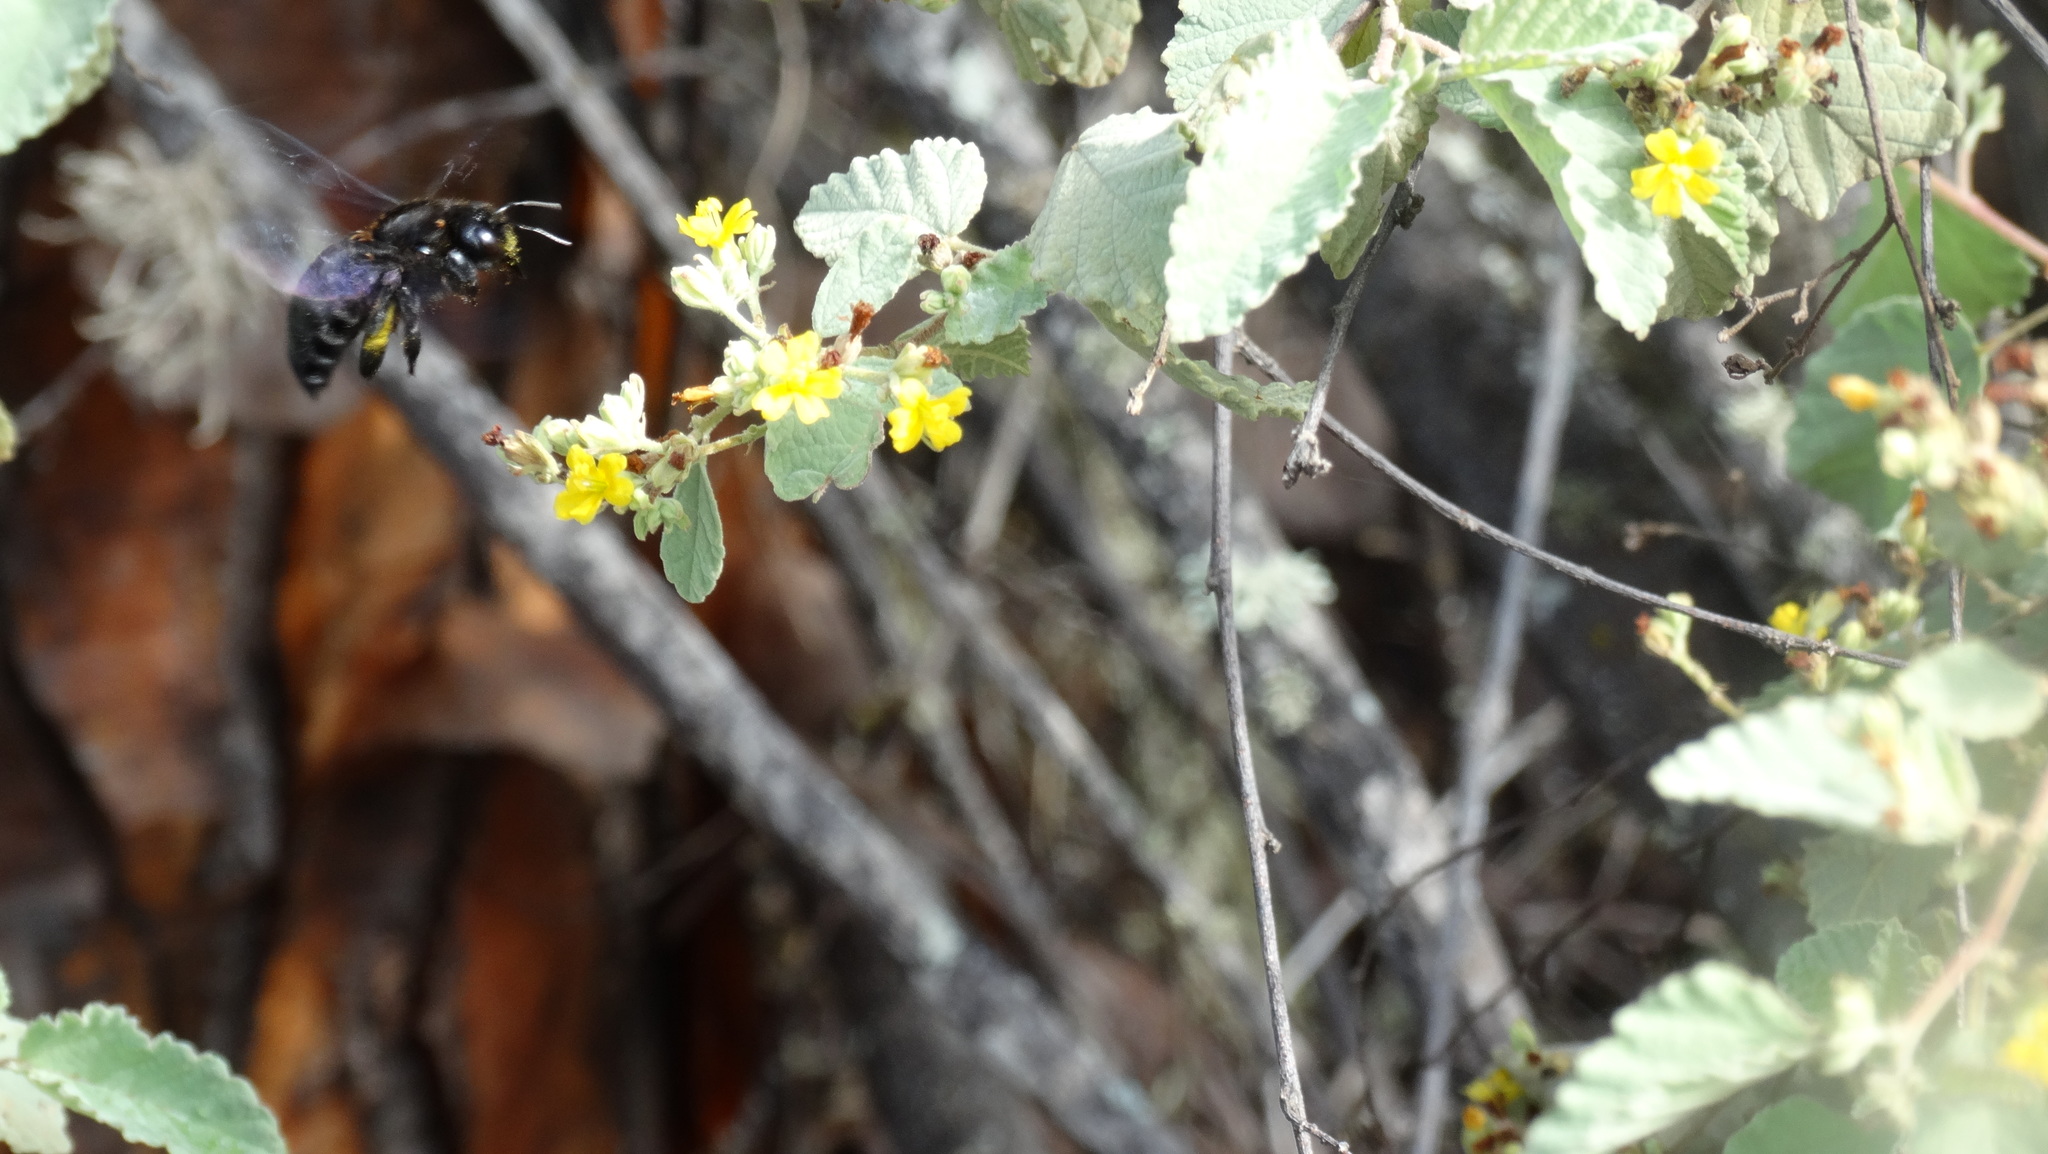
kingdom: Animalia
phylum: Arthropoda
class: Insecta
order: Hymenoptera
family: Apidae
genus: Xylocopa
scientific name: Xylocopa darwini
